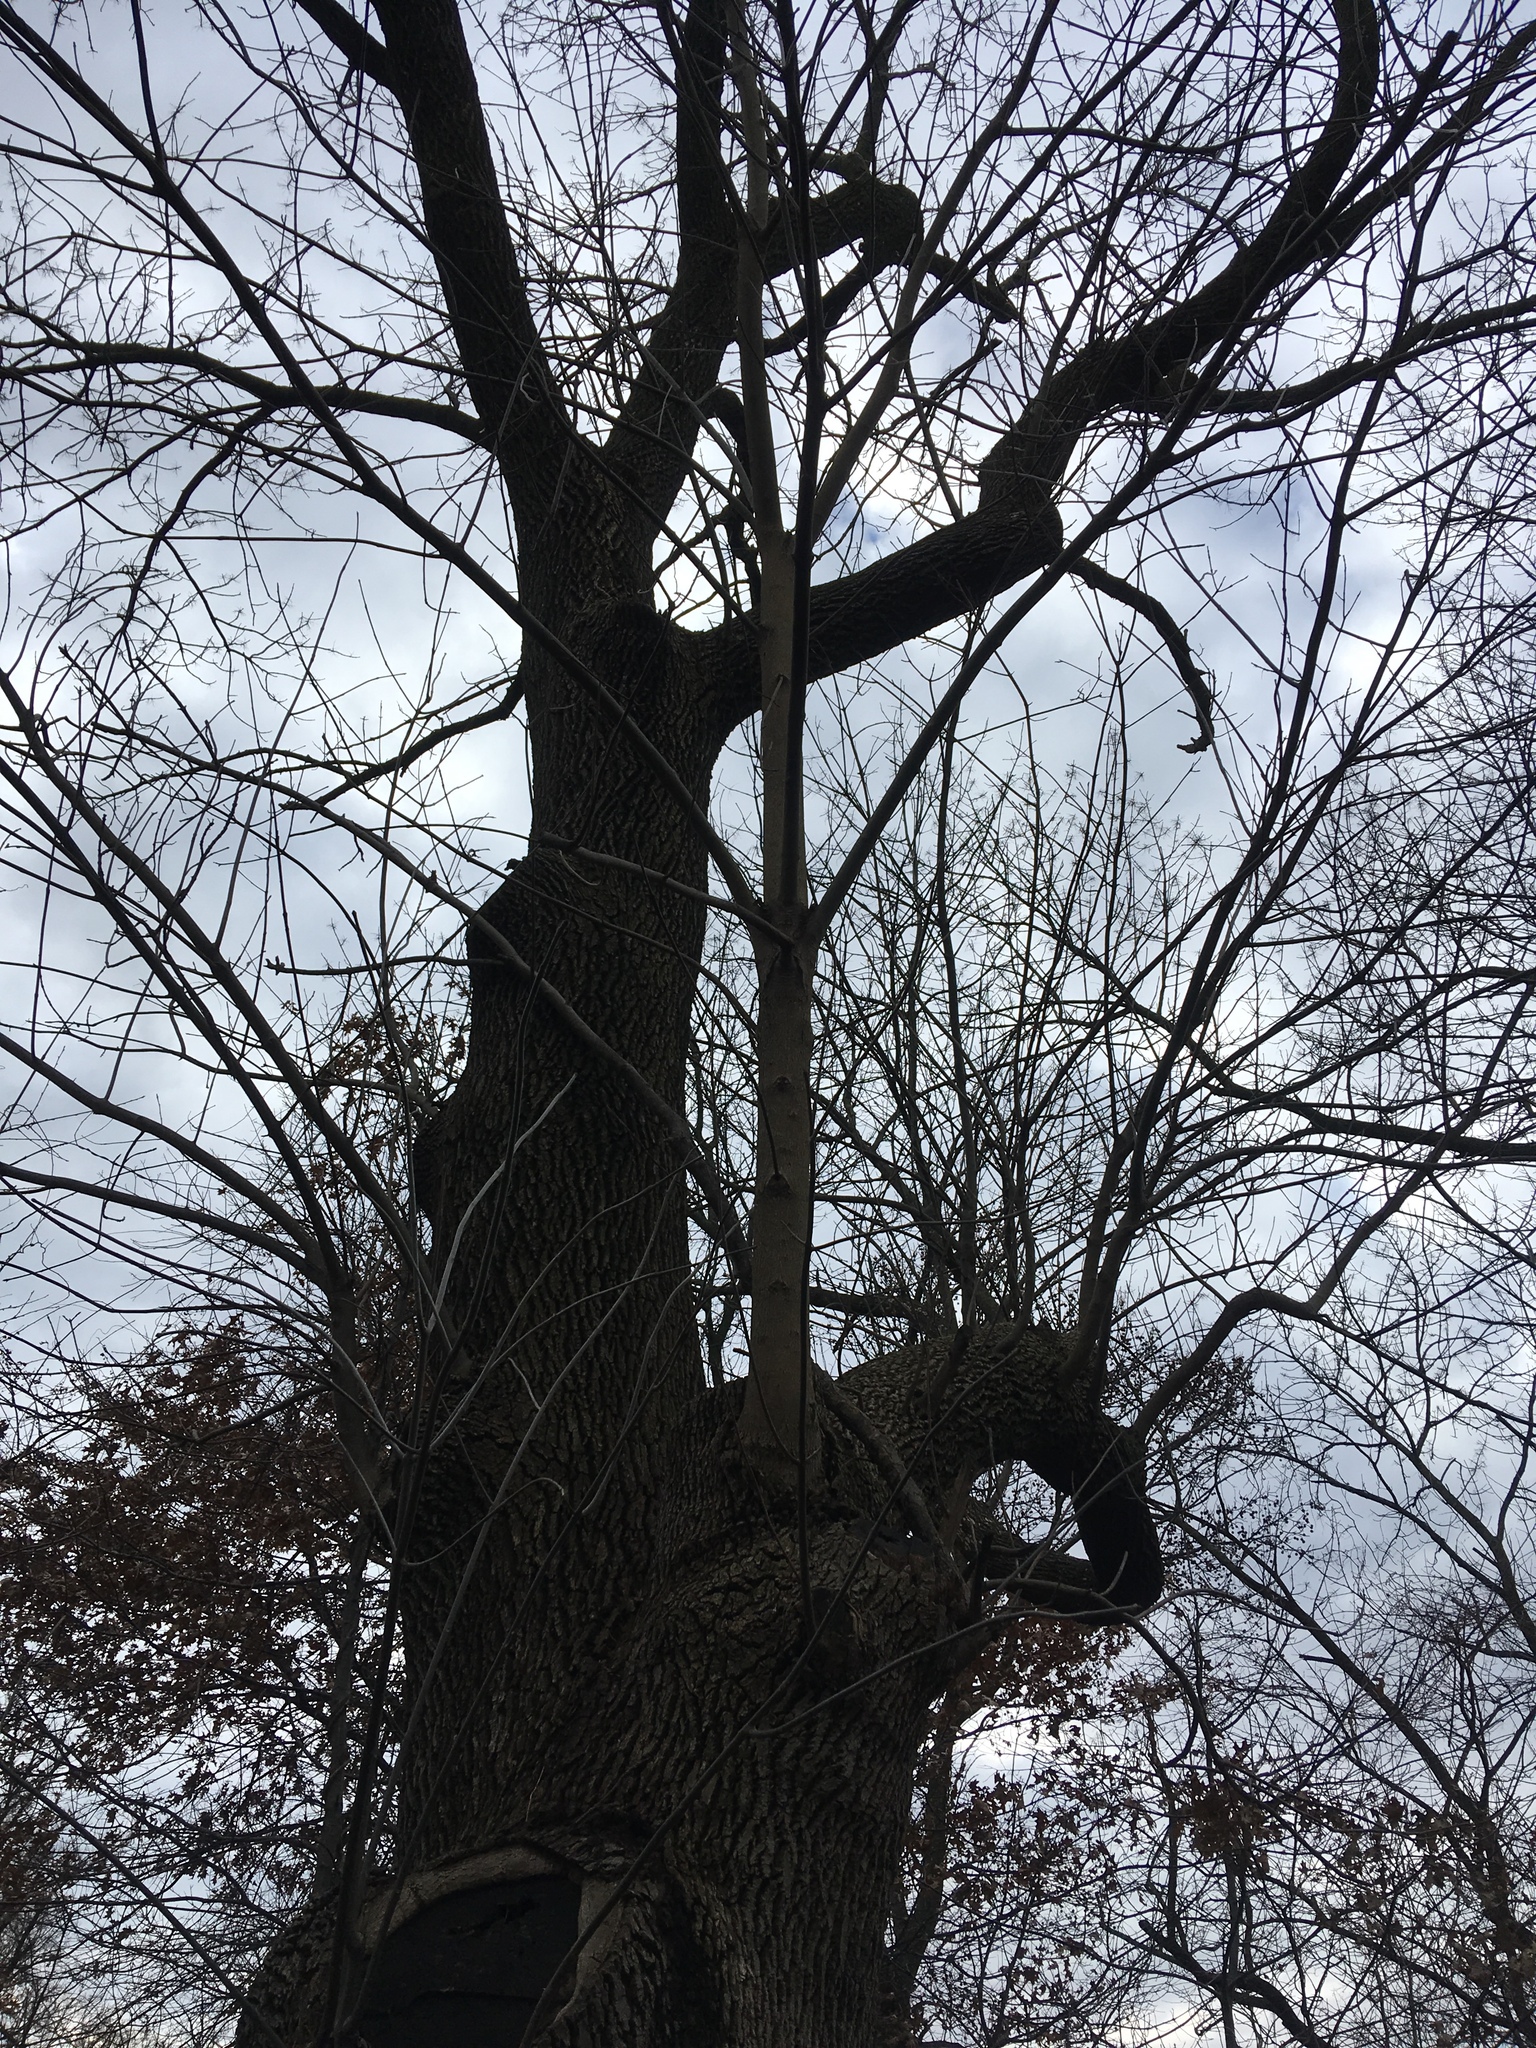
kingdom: Plantae
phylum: Tracheophyta
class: Magnoliopsida
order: Lamiales
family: Oleaceae
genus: Fraxinus
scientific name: Fraxinus pennsylvanica
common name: Green ash
